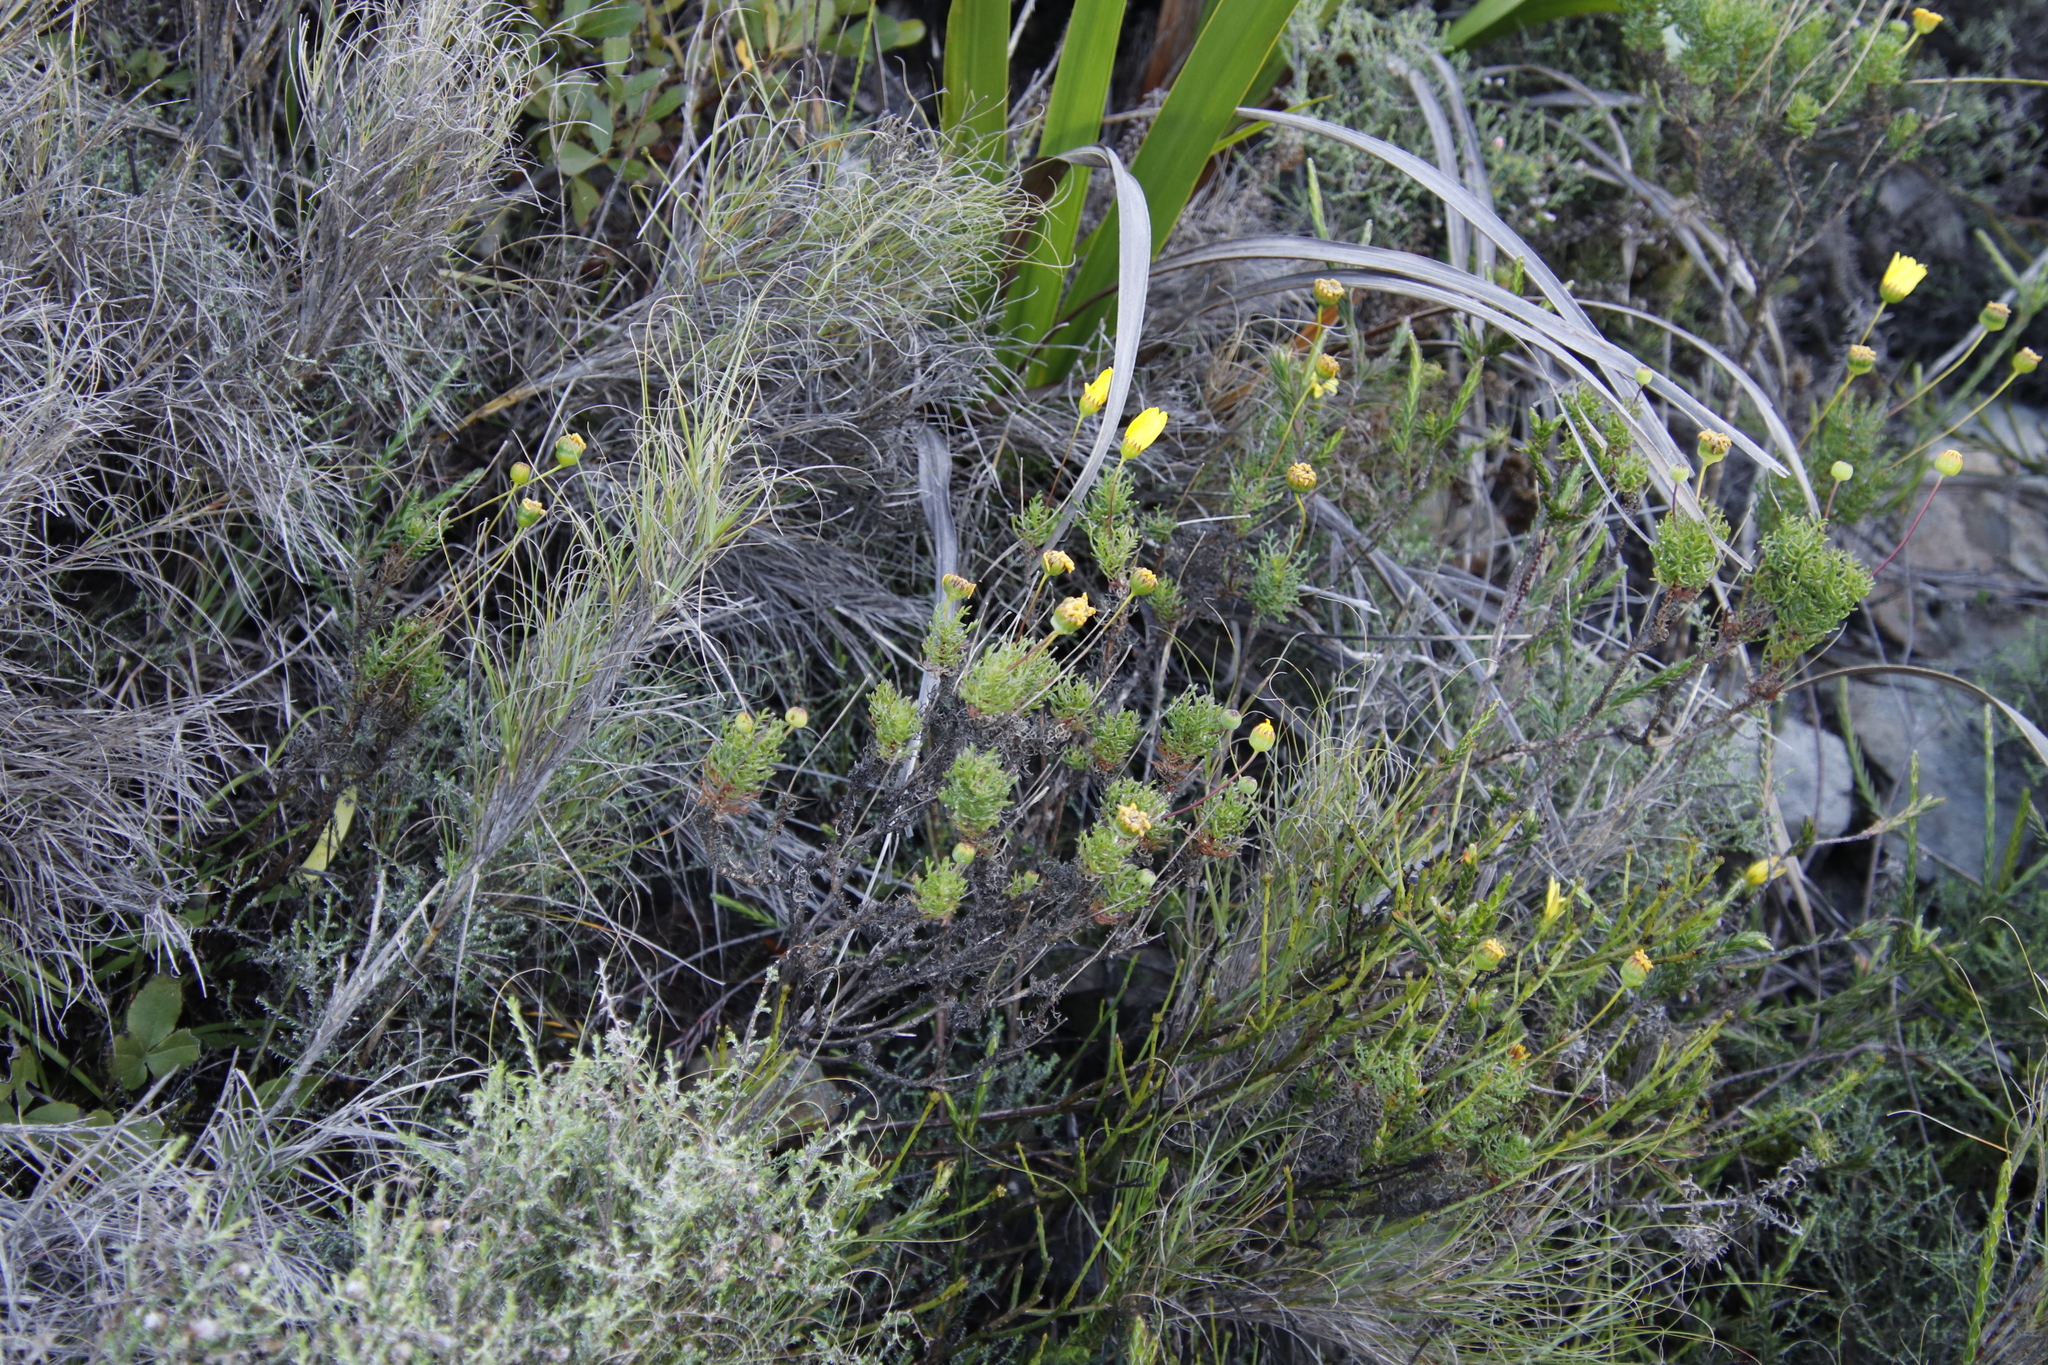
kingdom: Plantae
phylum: Tracheophyta
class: Magnoliopsida
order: Asterales
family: Asteraceae
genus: Euryops
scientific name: Euryops abrotanifolius
